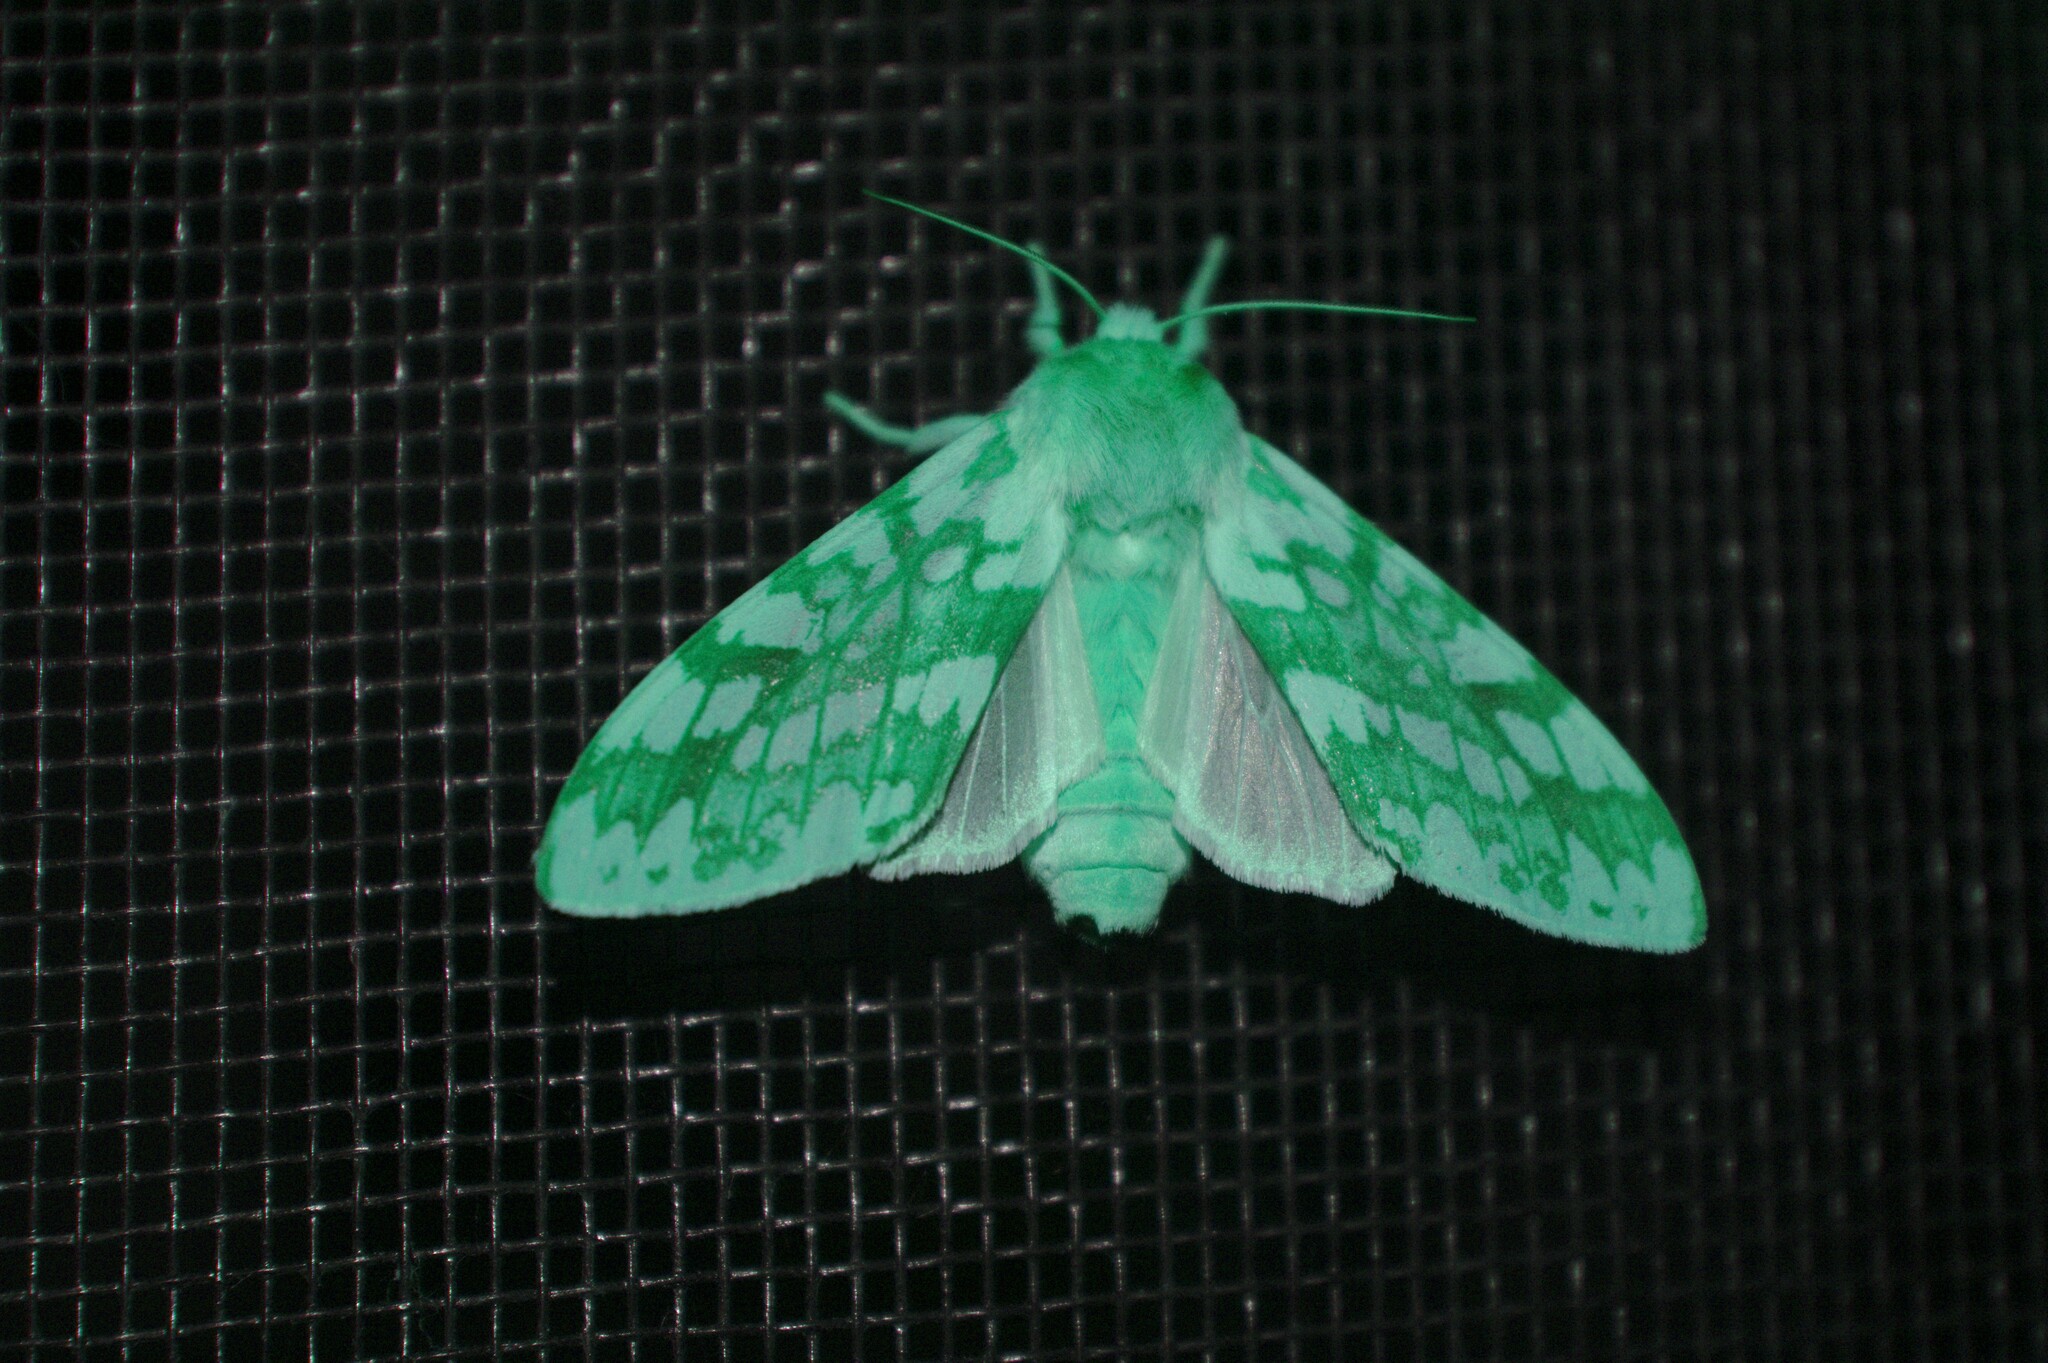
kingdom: Animalia
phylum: Arthropoda
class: Insecta
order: Lepidoptera
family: Erebidae
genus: Lophocampa
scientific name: Lophocampa maculata
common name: Spotted tussock moth
